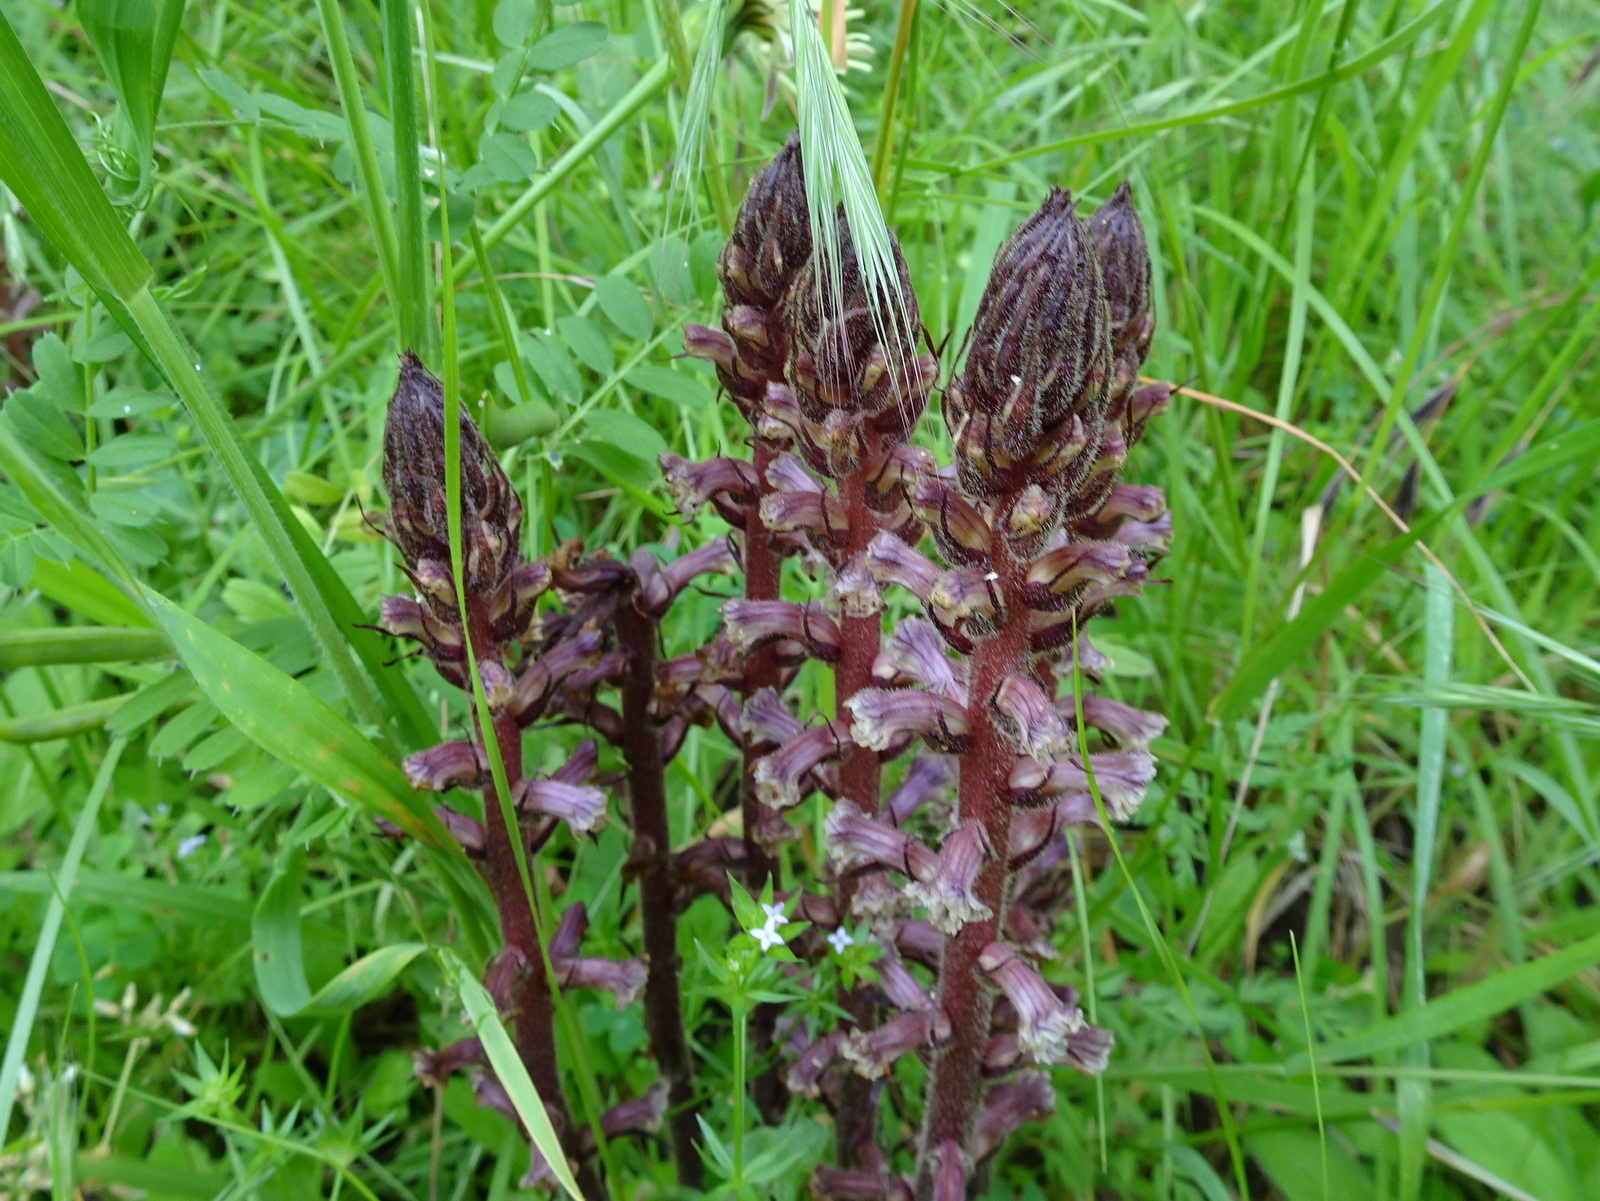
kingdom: Plantae
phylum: Tracheophyta
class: Magnoliopsida
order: Lamiales
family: Orobanchaceae
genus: Orobanche
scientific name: Orobanche hederae
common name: Ivy broomrape
